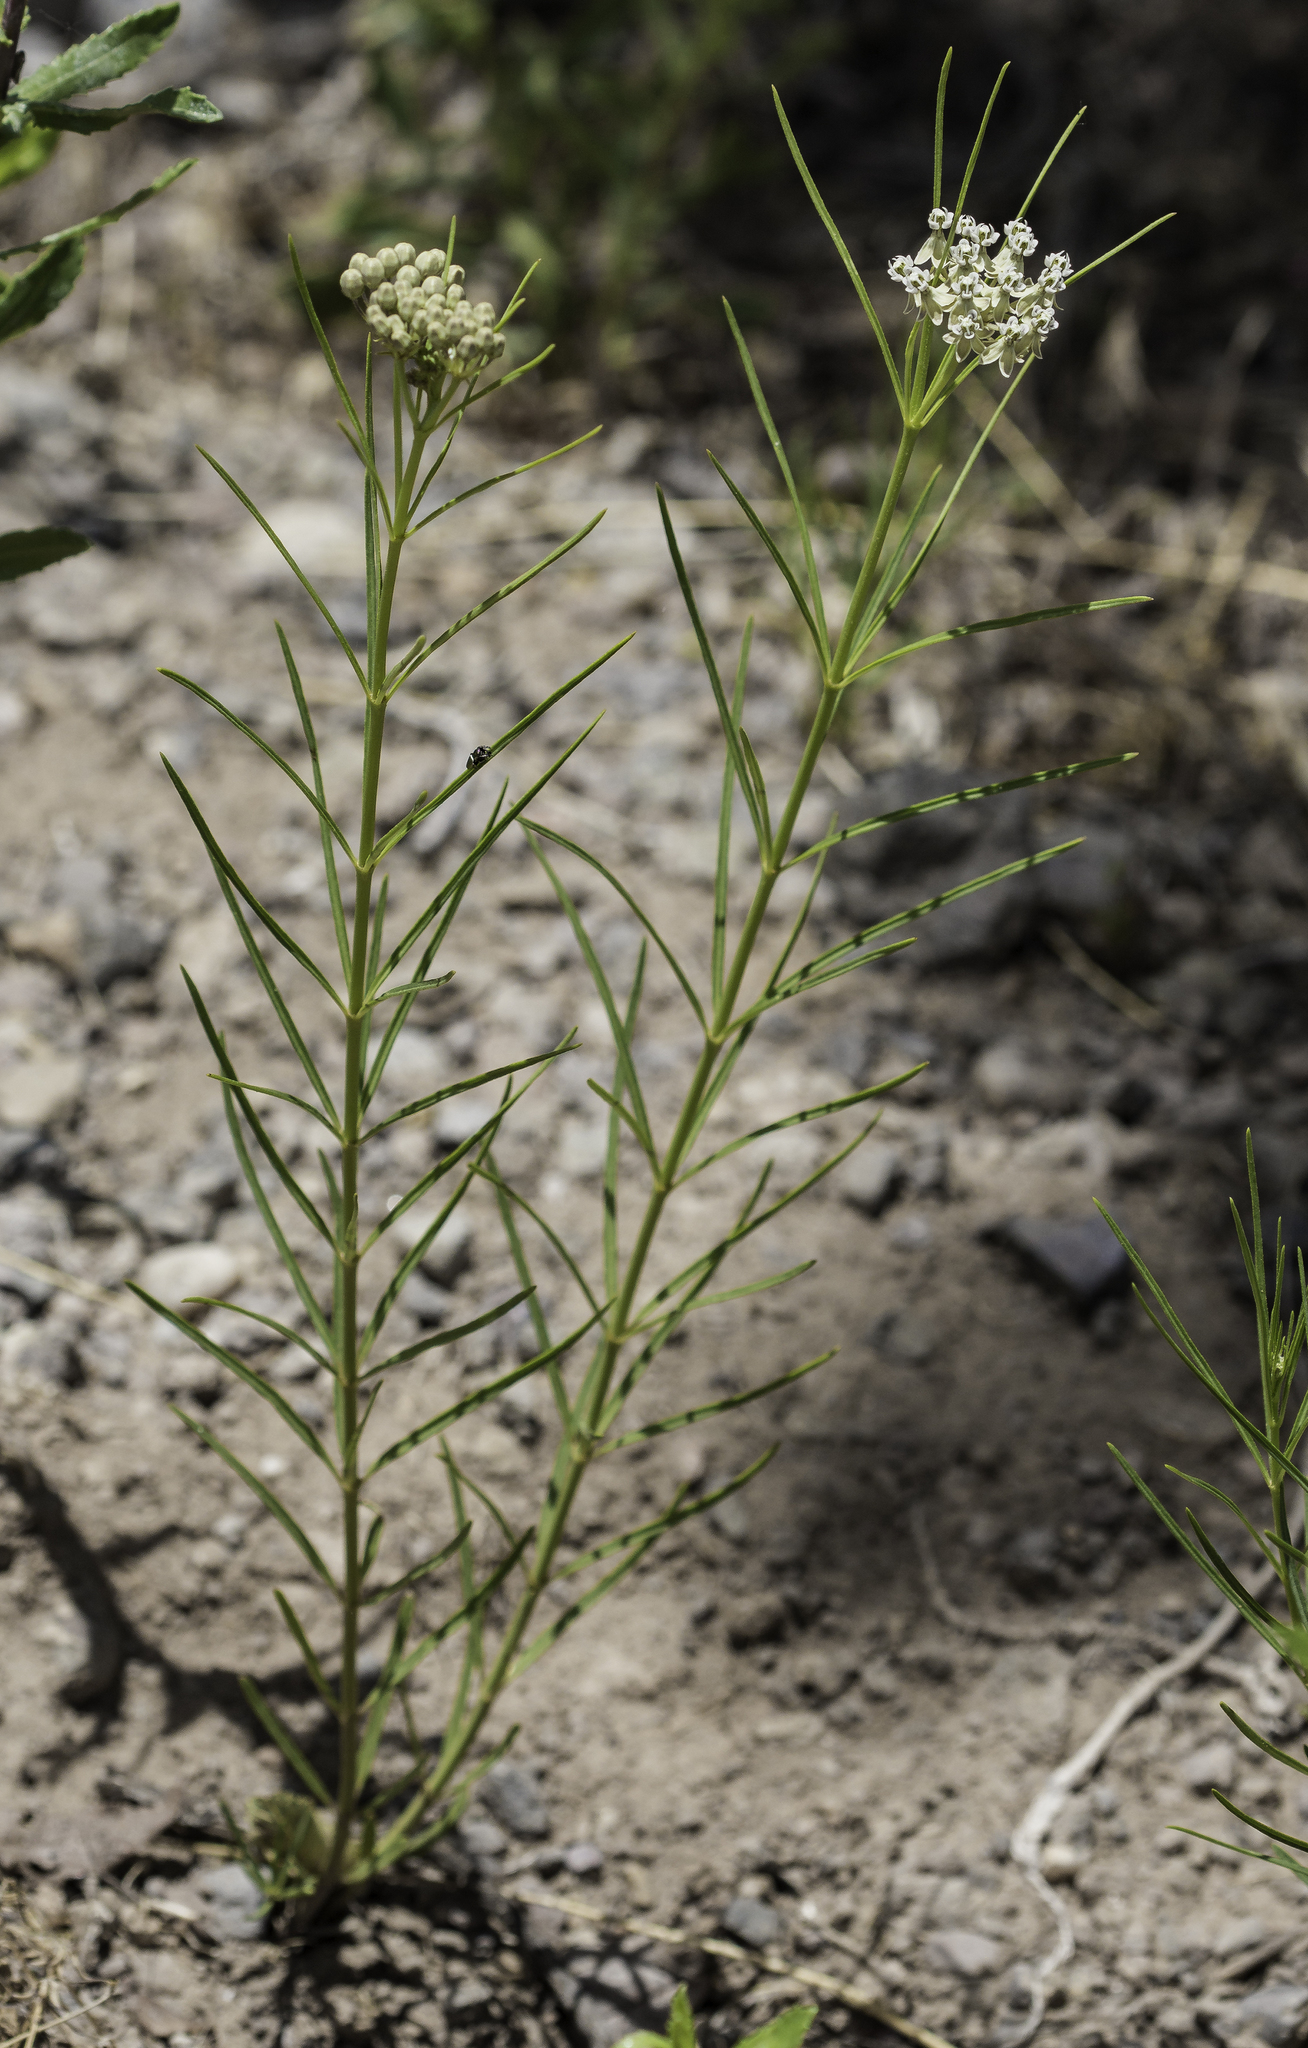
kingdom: Plantae
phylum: Tracheophyta
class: Magnoliopsida
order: Gentianales
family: Apocynaceae
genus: Asclepias
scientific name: Asclepias subverticillata
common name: Horsetail milkweed
